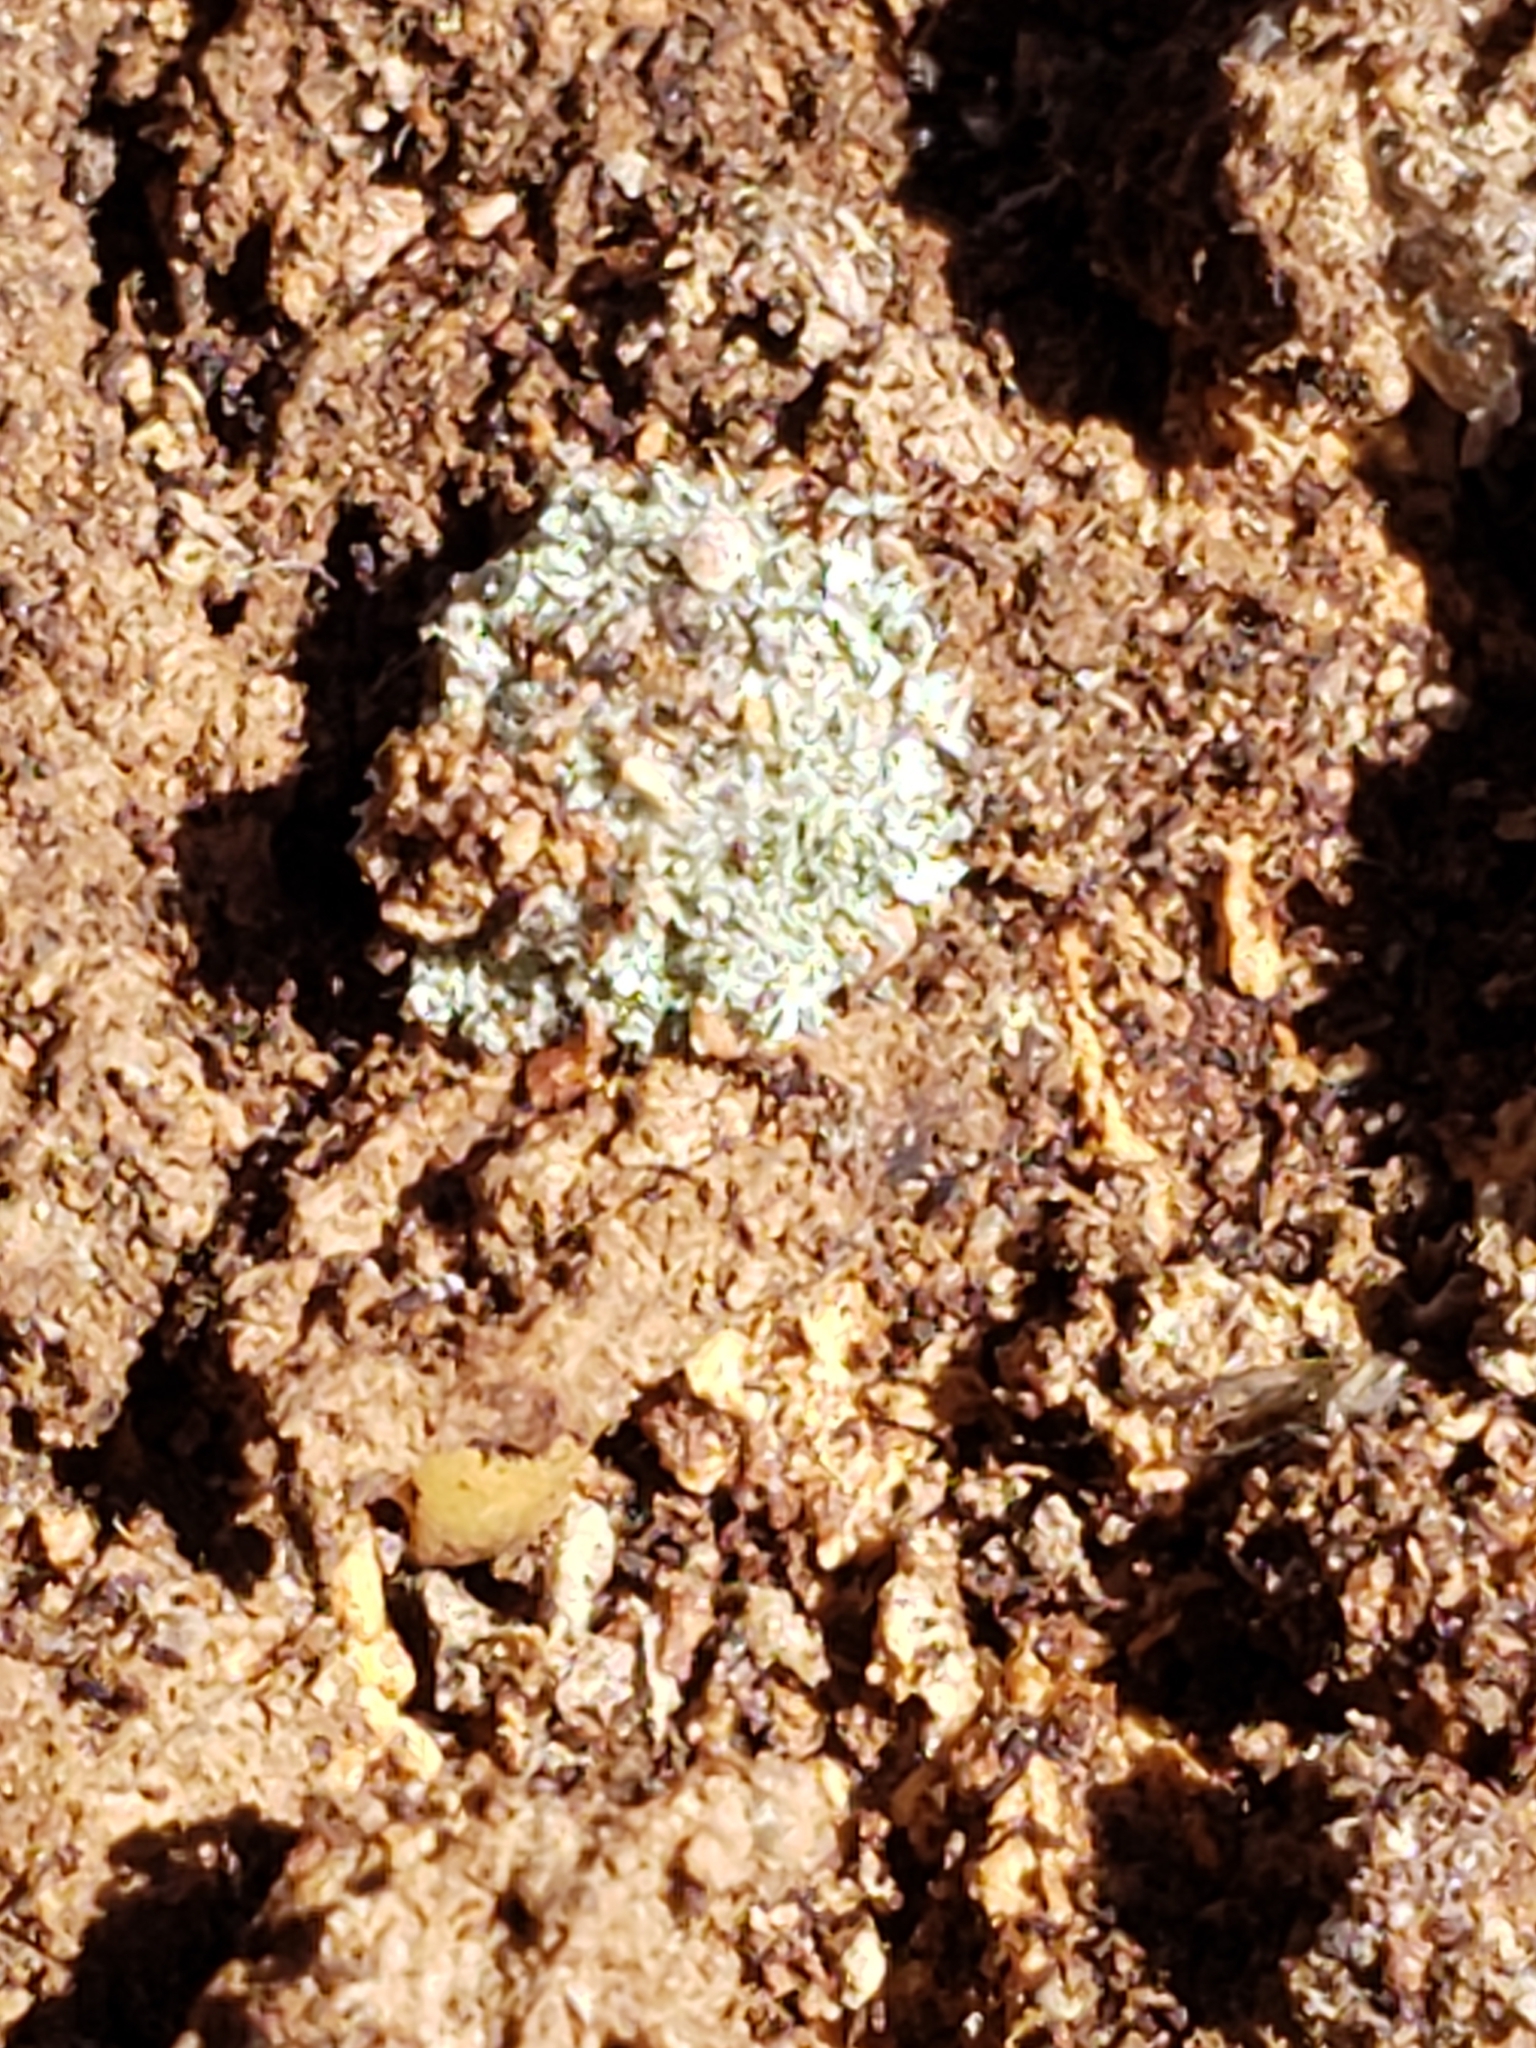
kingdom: Animalia
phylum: Arthropoda
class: Insecta
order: Neuroptera
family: Chrysopidae
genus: Leucochrysa
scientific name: Leucochrysa pavida
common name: Lichen-carrying green lacewing
